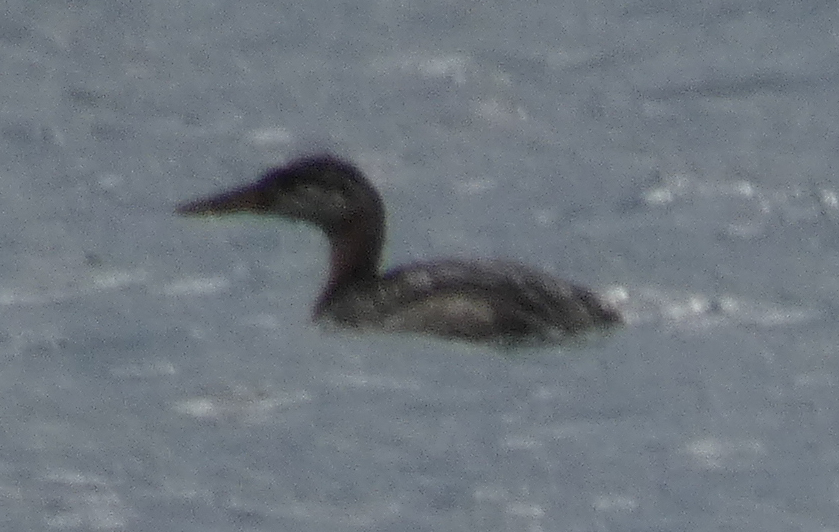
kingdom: Animalia
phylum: Chordata
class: Aves
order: Podicipediformes
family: Podicipedidae
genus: Podiceps
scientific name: Podiceps grisegena
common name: Red-necked grebe
